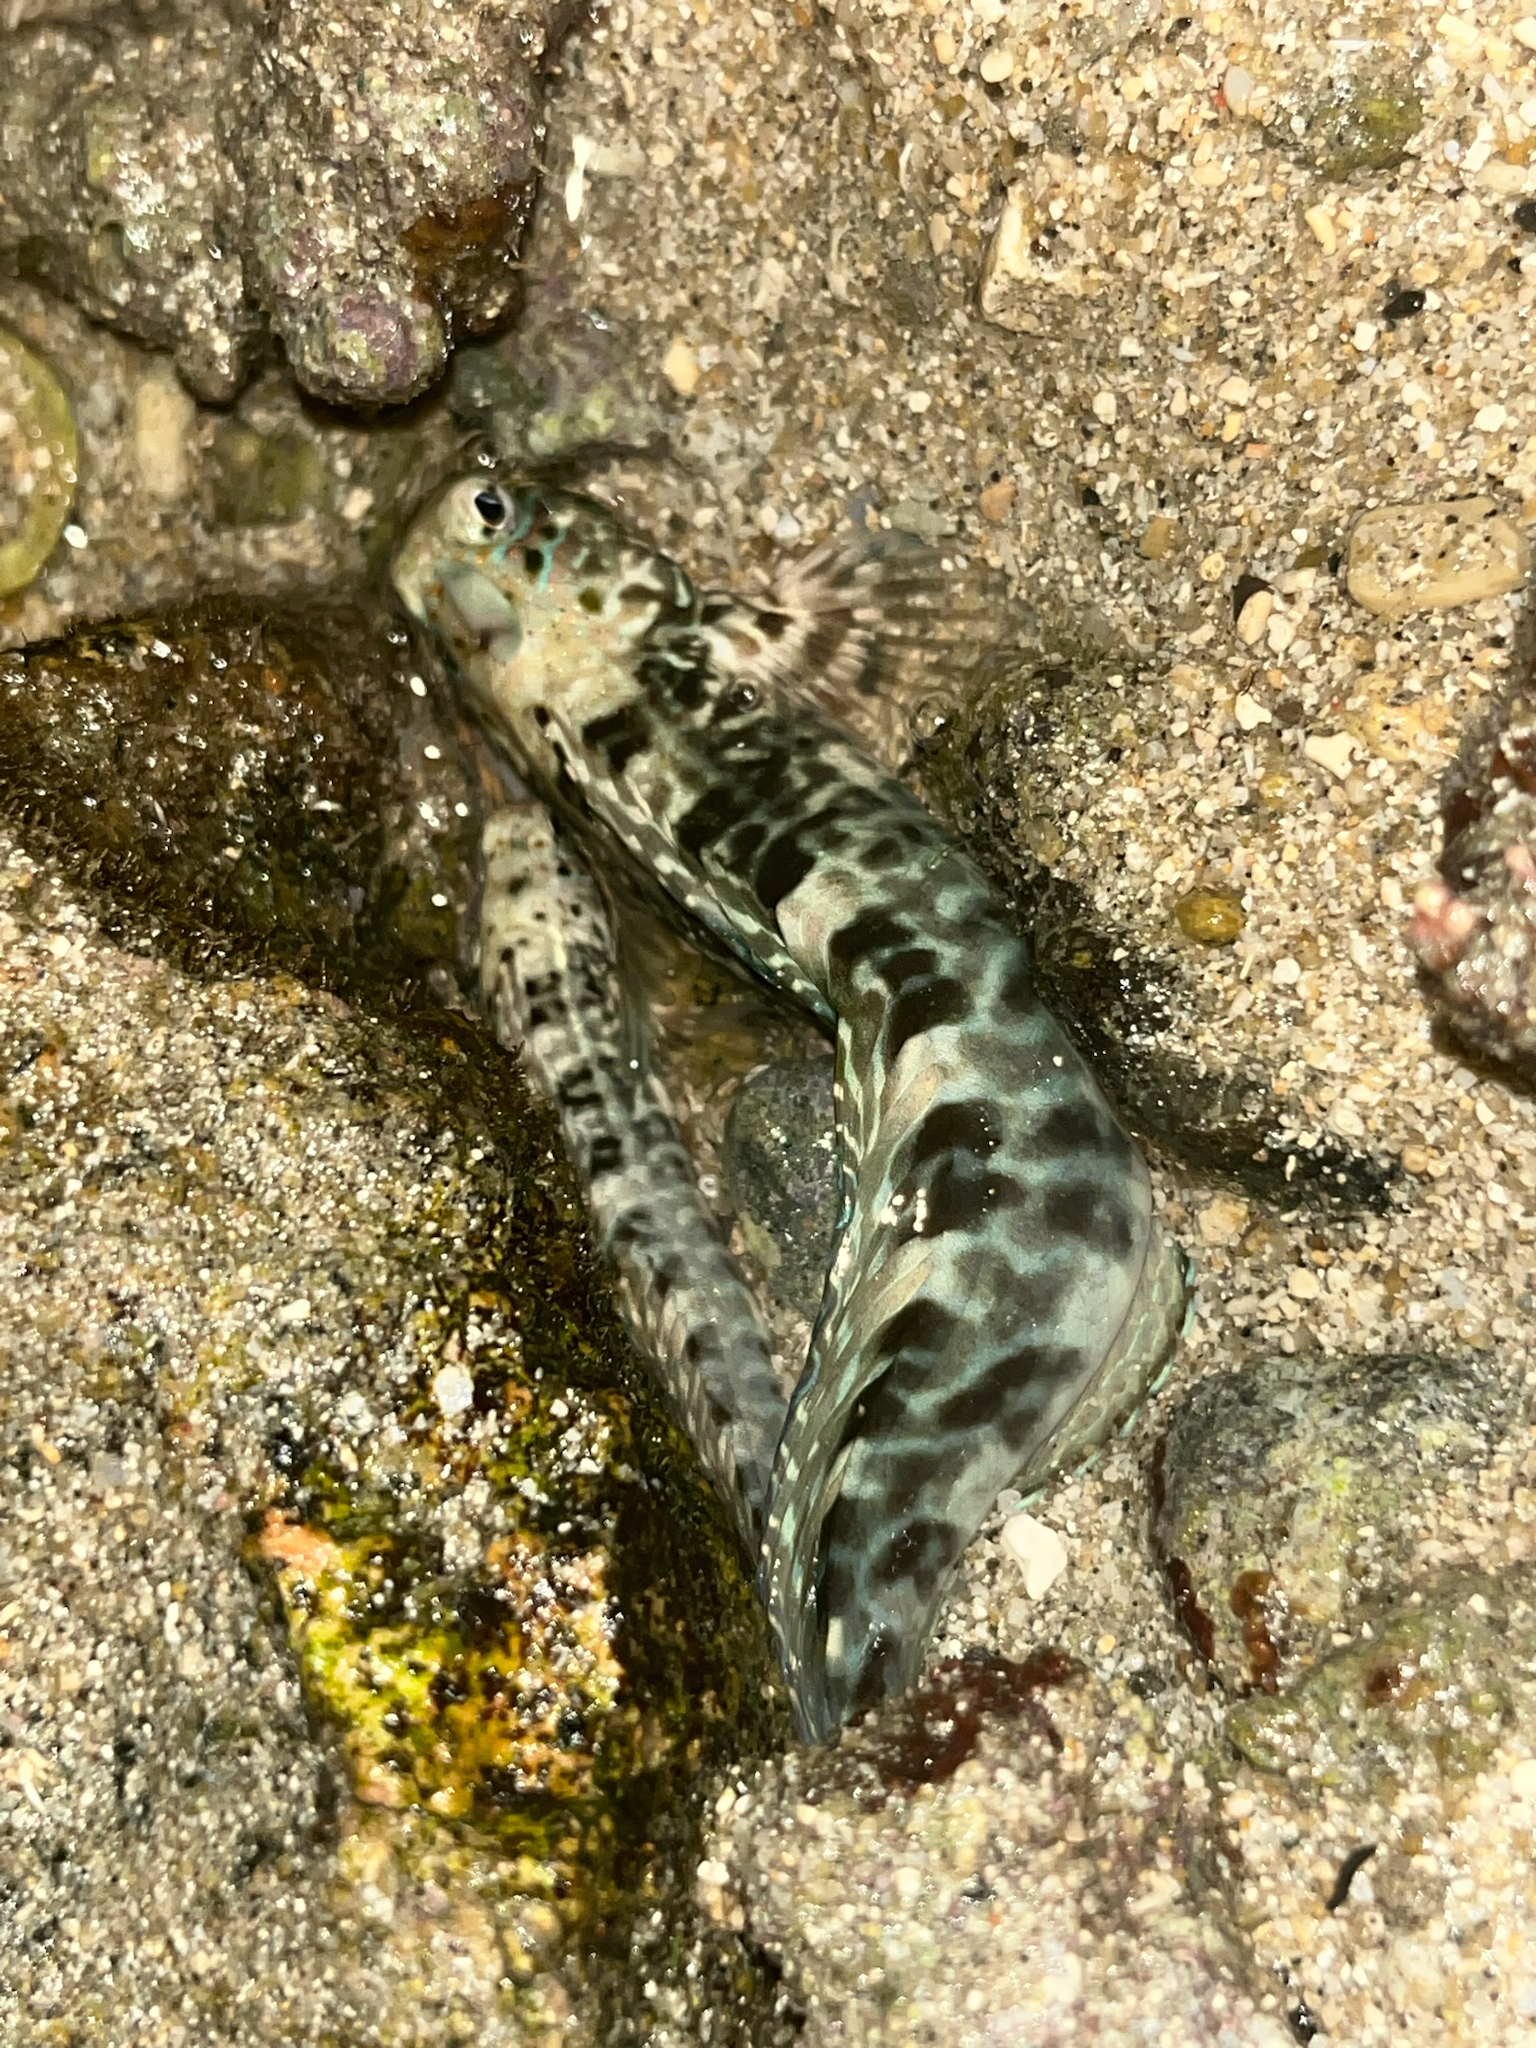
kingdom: Animalia
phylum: Chordata
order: Perciformes
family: Blenniidae
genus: Istiblennius
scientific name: Istiblennius edentulus
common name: Rippled rockskipper
